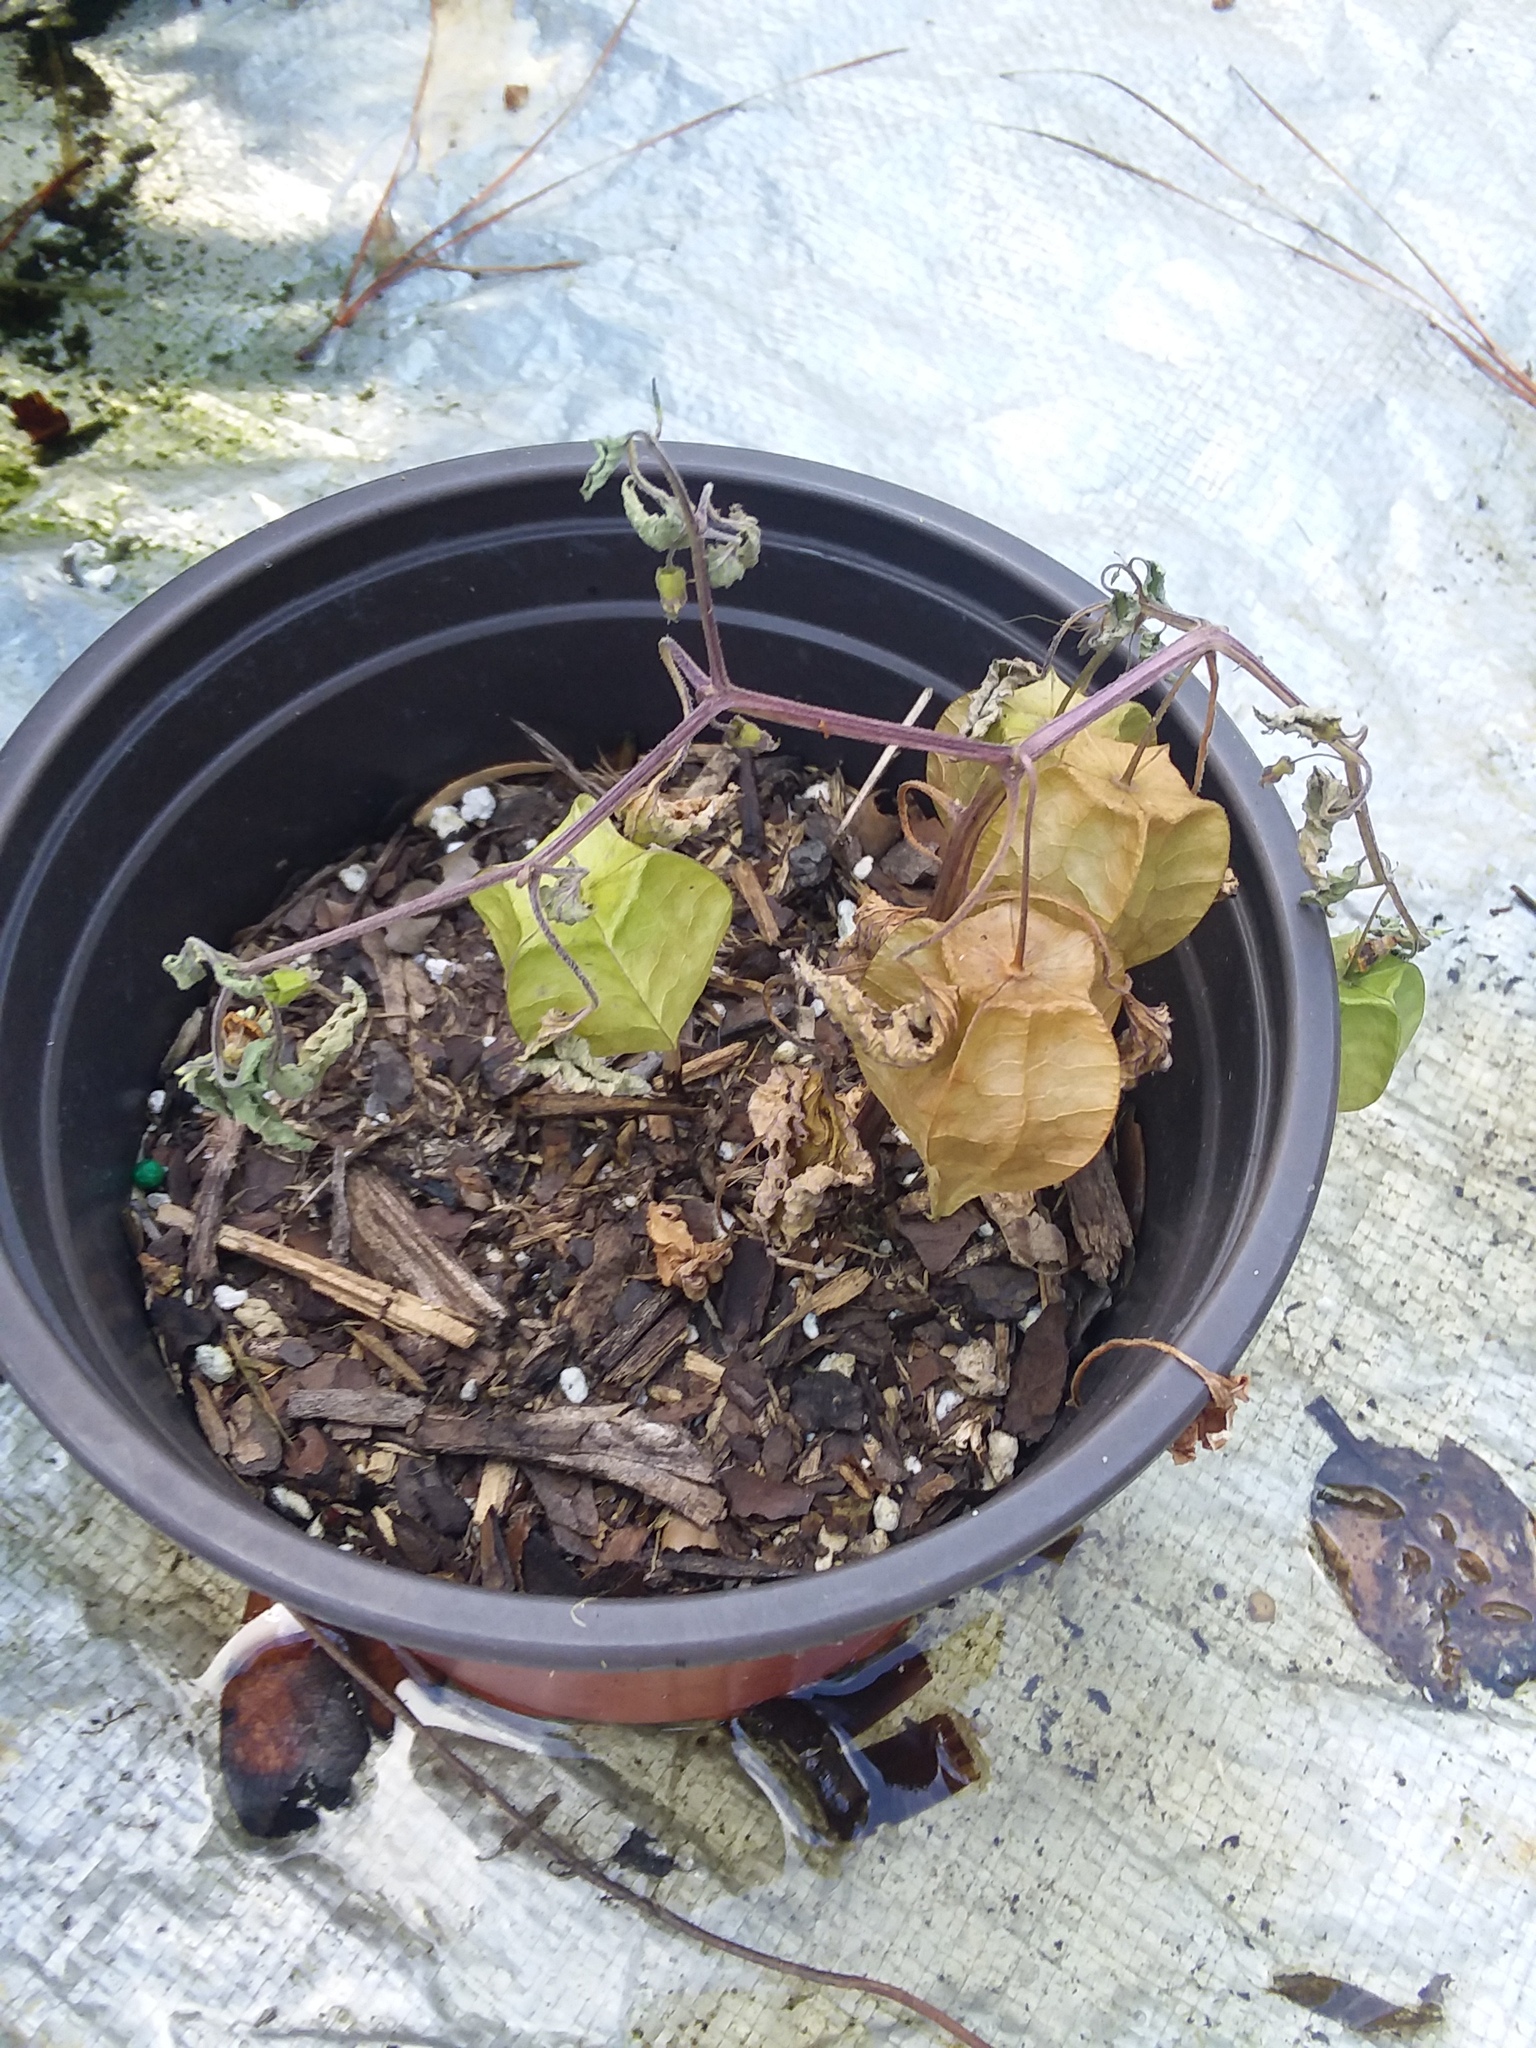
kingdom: Plantae
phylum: Tracheophyta
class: Magnoliopsida
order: Solanales
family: Solanaceae
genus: Physalis
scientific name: Physalis cordata
